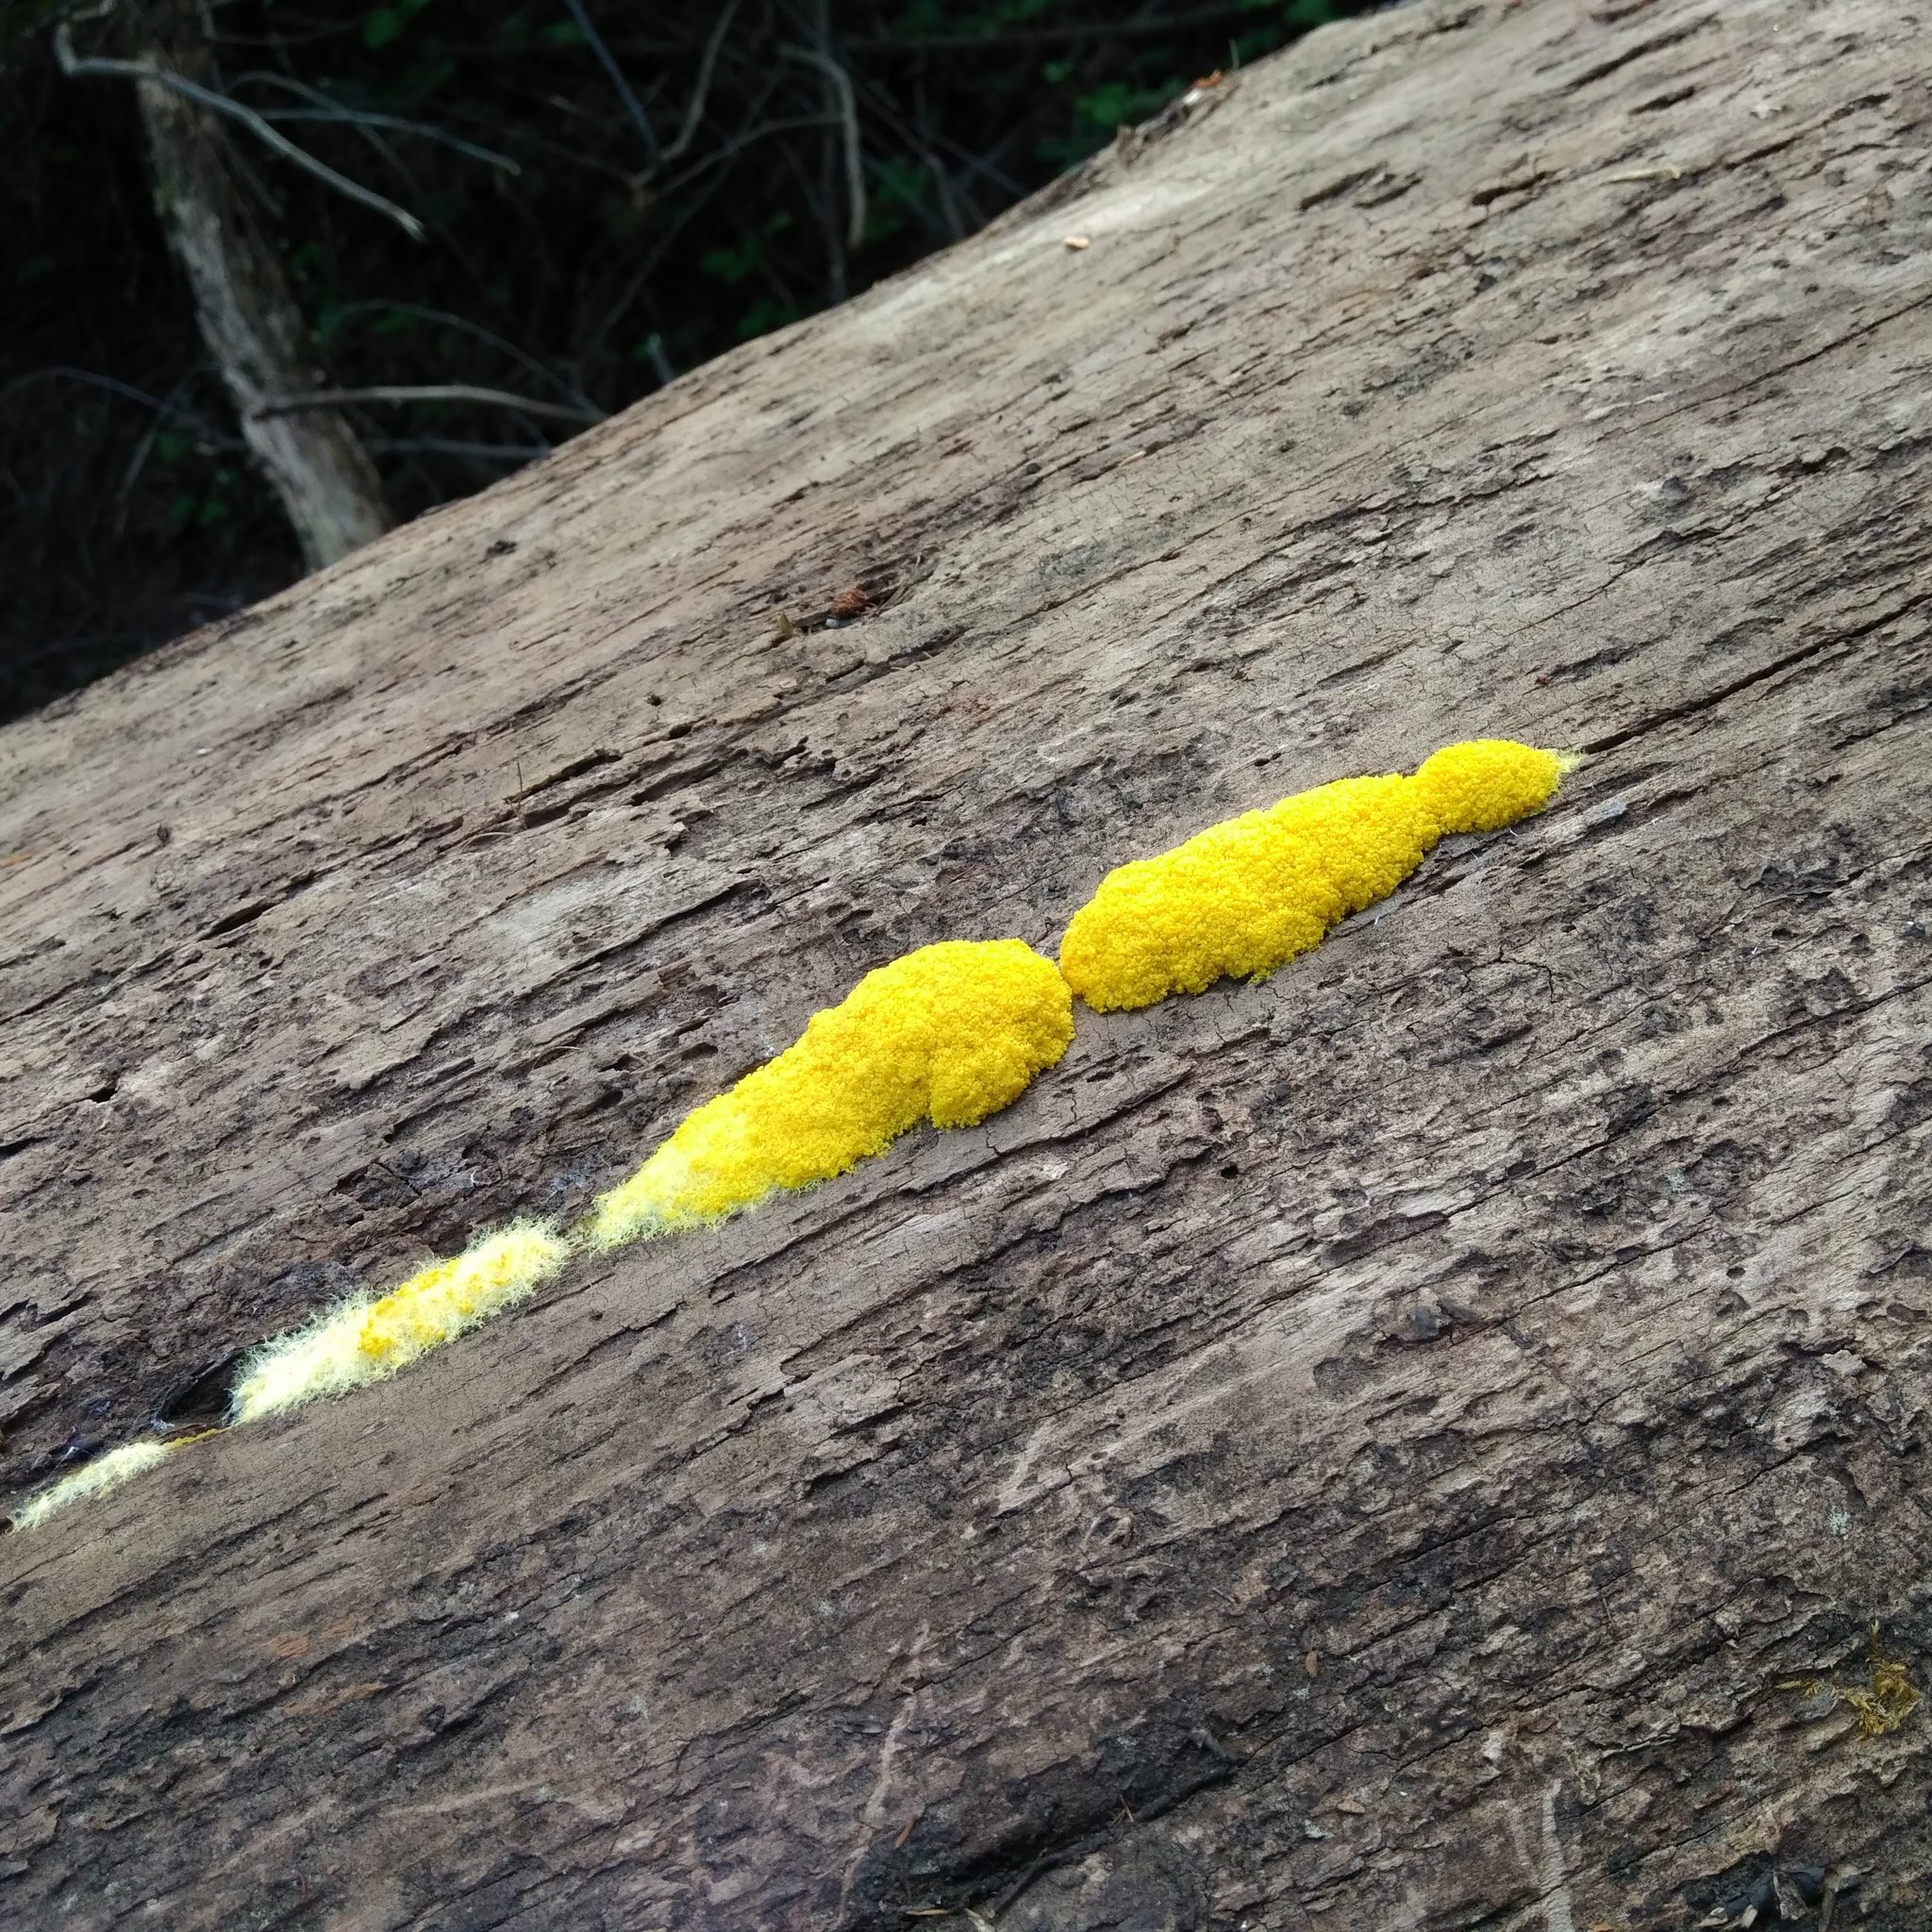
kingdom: Protozoa
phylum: Mycetozoa
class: Myxomycetes
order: Physarales
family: Physaraceae
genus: Fuligo
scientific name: Fuligo septica
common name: Dog vomit slime mold
